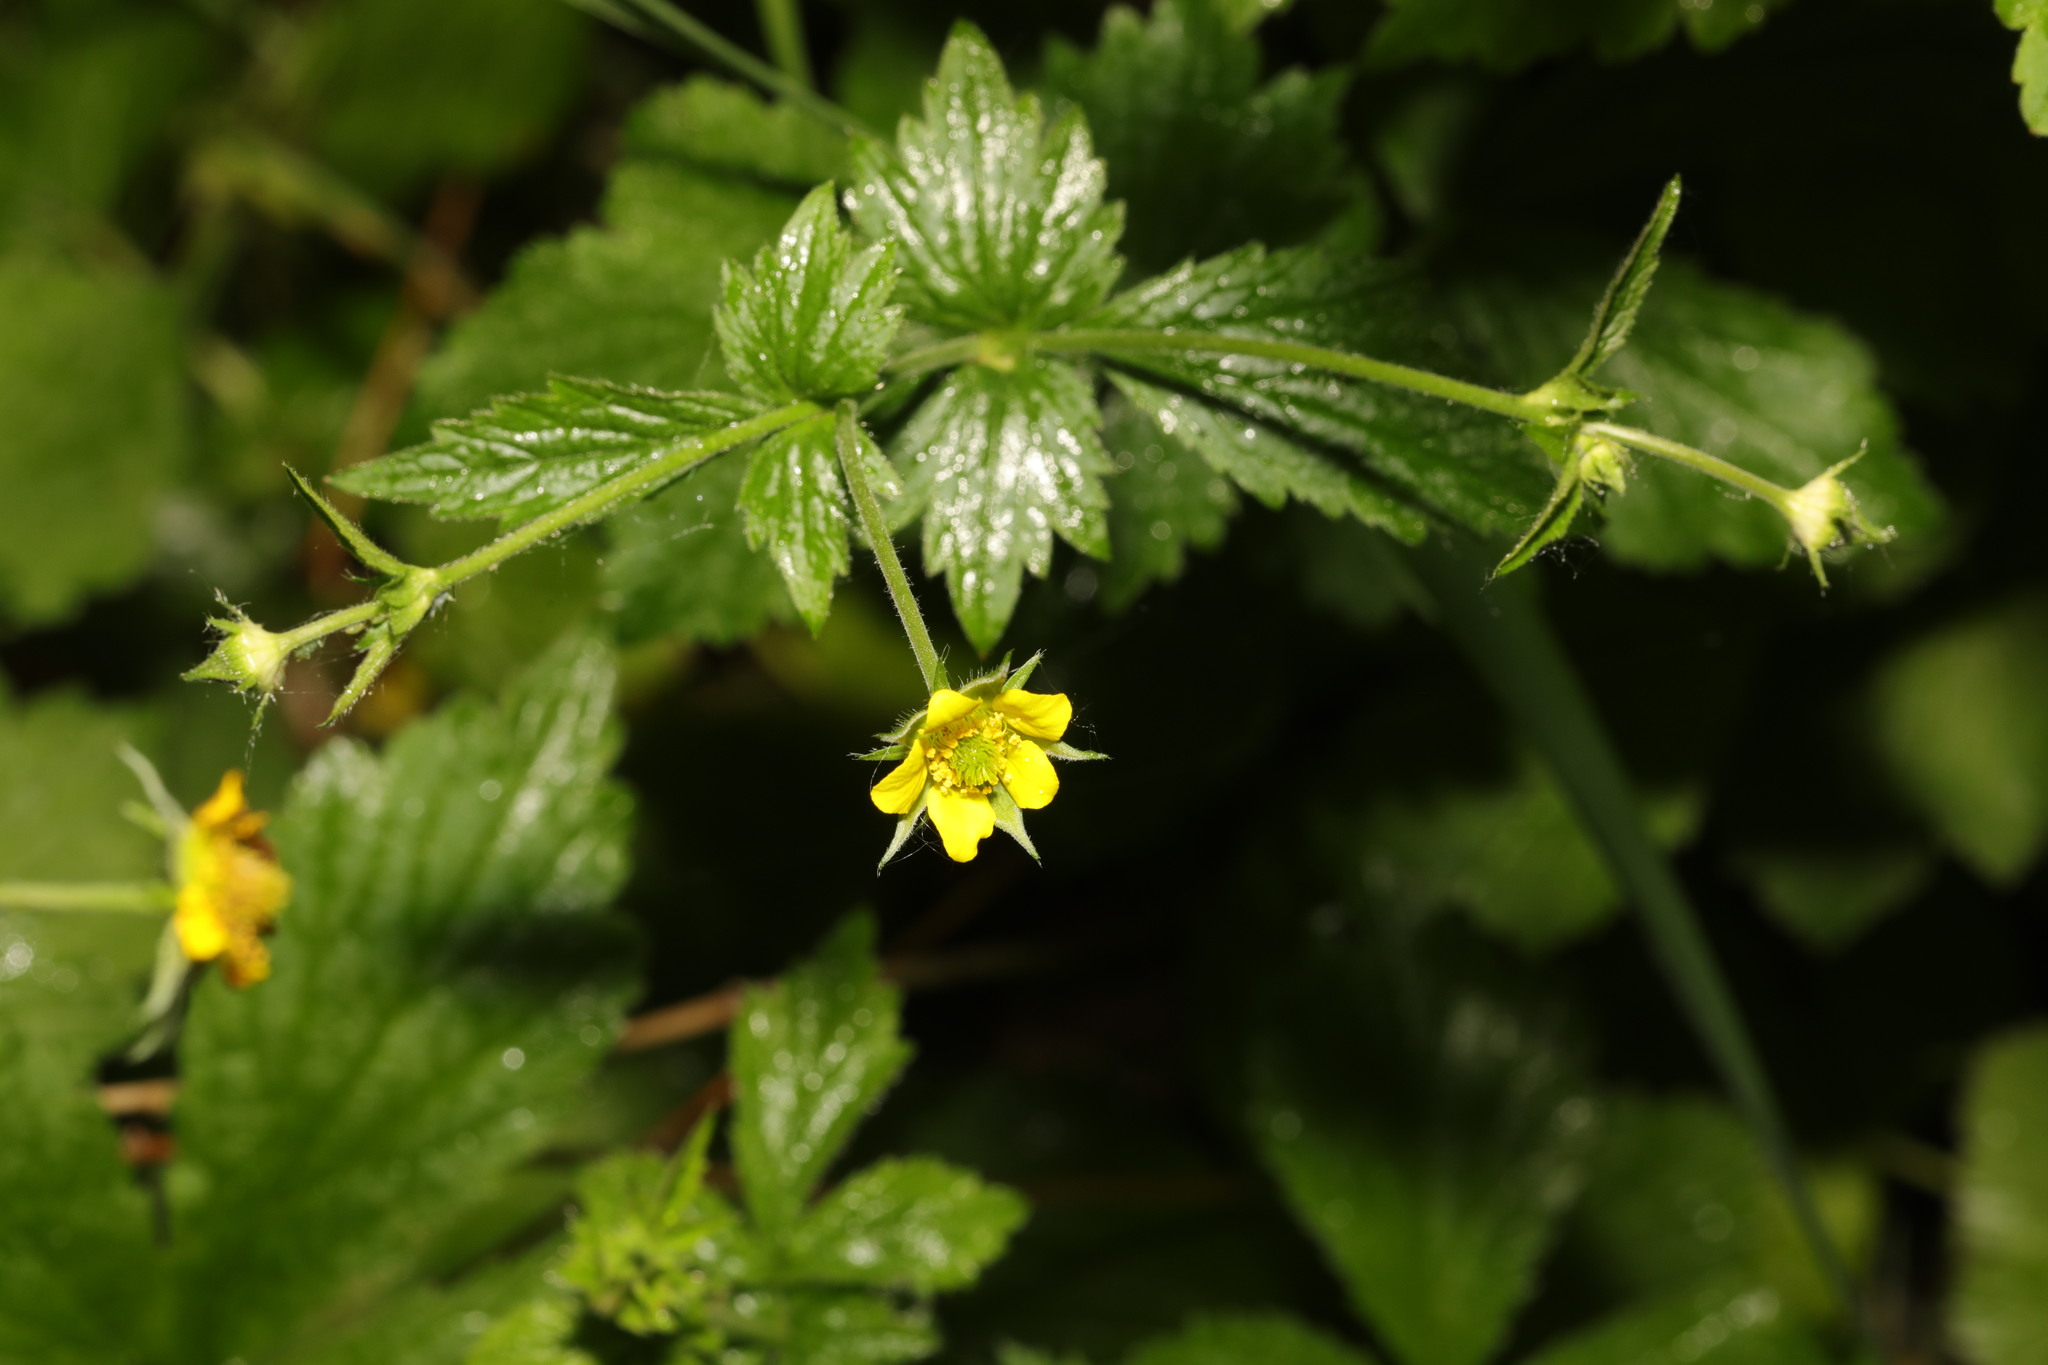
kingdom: Plantae
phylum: Tracheophyta
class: Magnoliopsida
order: Rosales
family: Rosaceae
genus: Geum
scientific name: Geum urbanum
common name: Wood avens
